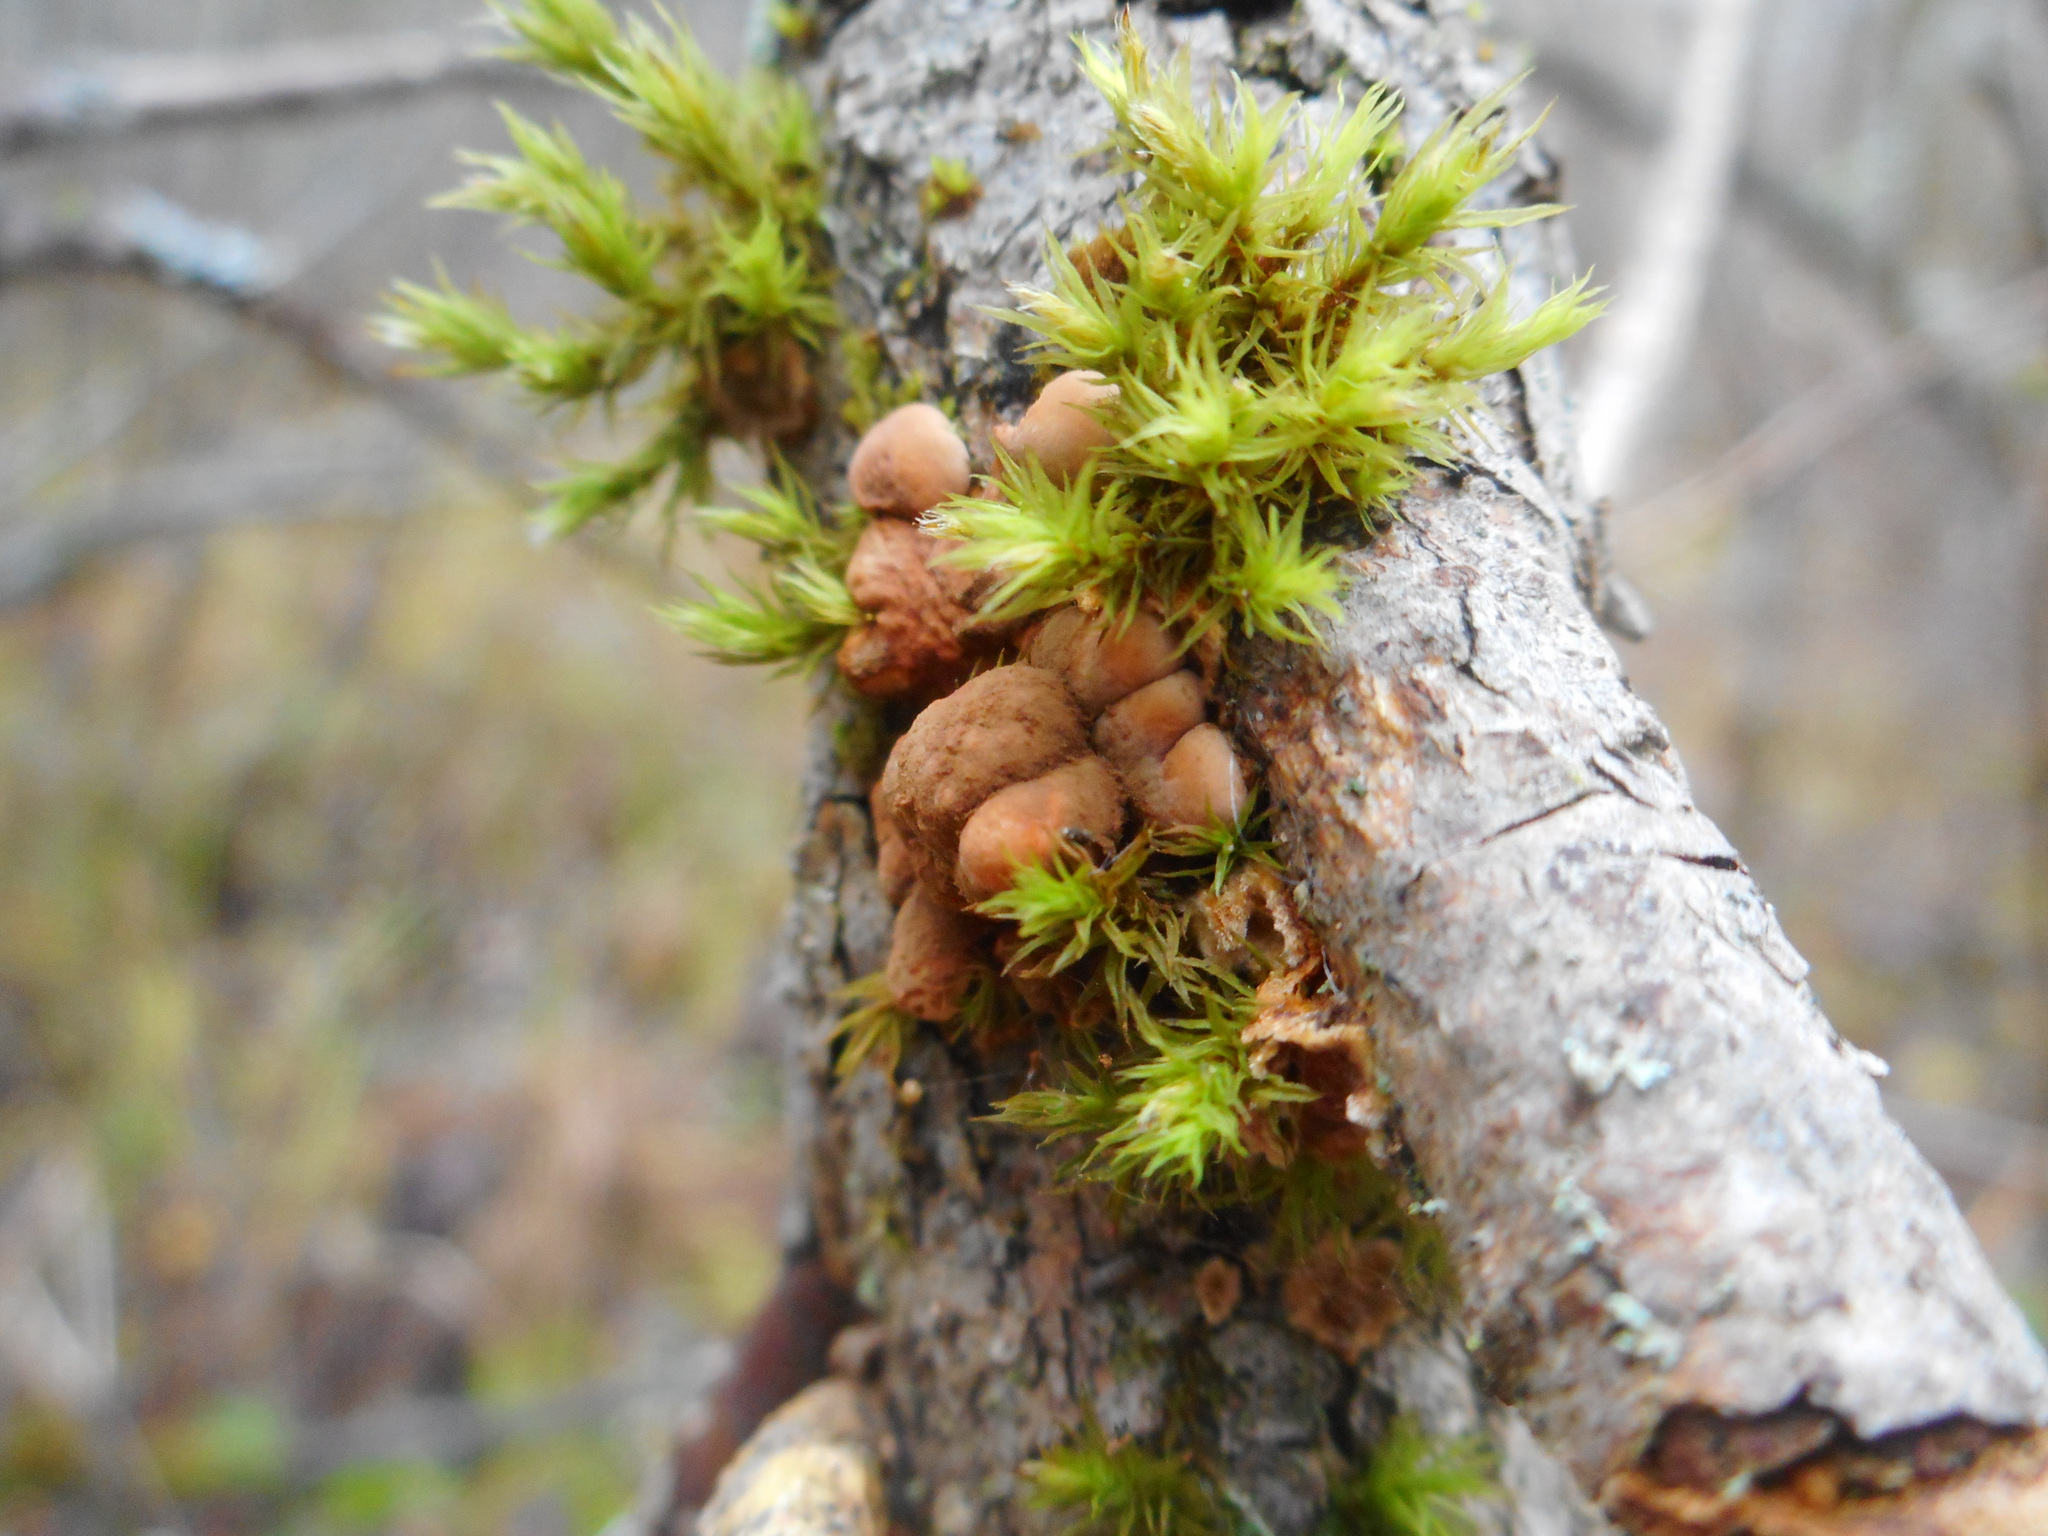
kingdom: Fungi
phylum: Ascomycota
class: Sordariomycetes
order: Hypocreales
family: Hypocreaceae
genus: Hypocreopsis
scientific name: Hypocreopsis lichenoides
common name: Willow gloves
